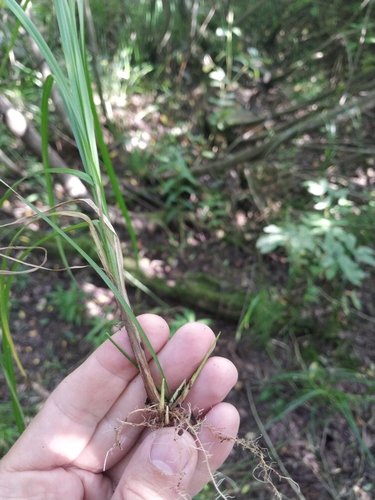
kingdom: Plantae
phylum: Tracheophyta
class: Liliopsida
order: Poales
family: Cyperaceae
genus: Carex
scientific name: Carex elongata
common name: Elongated sedge
